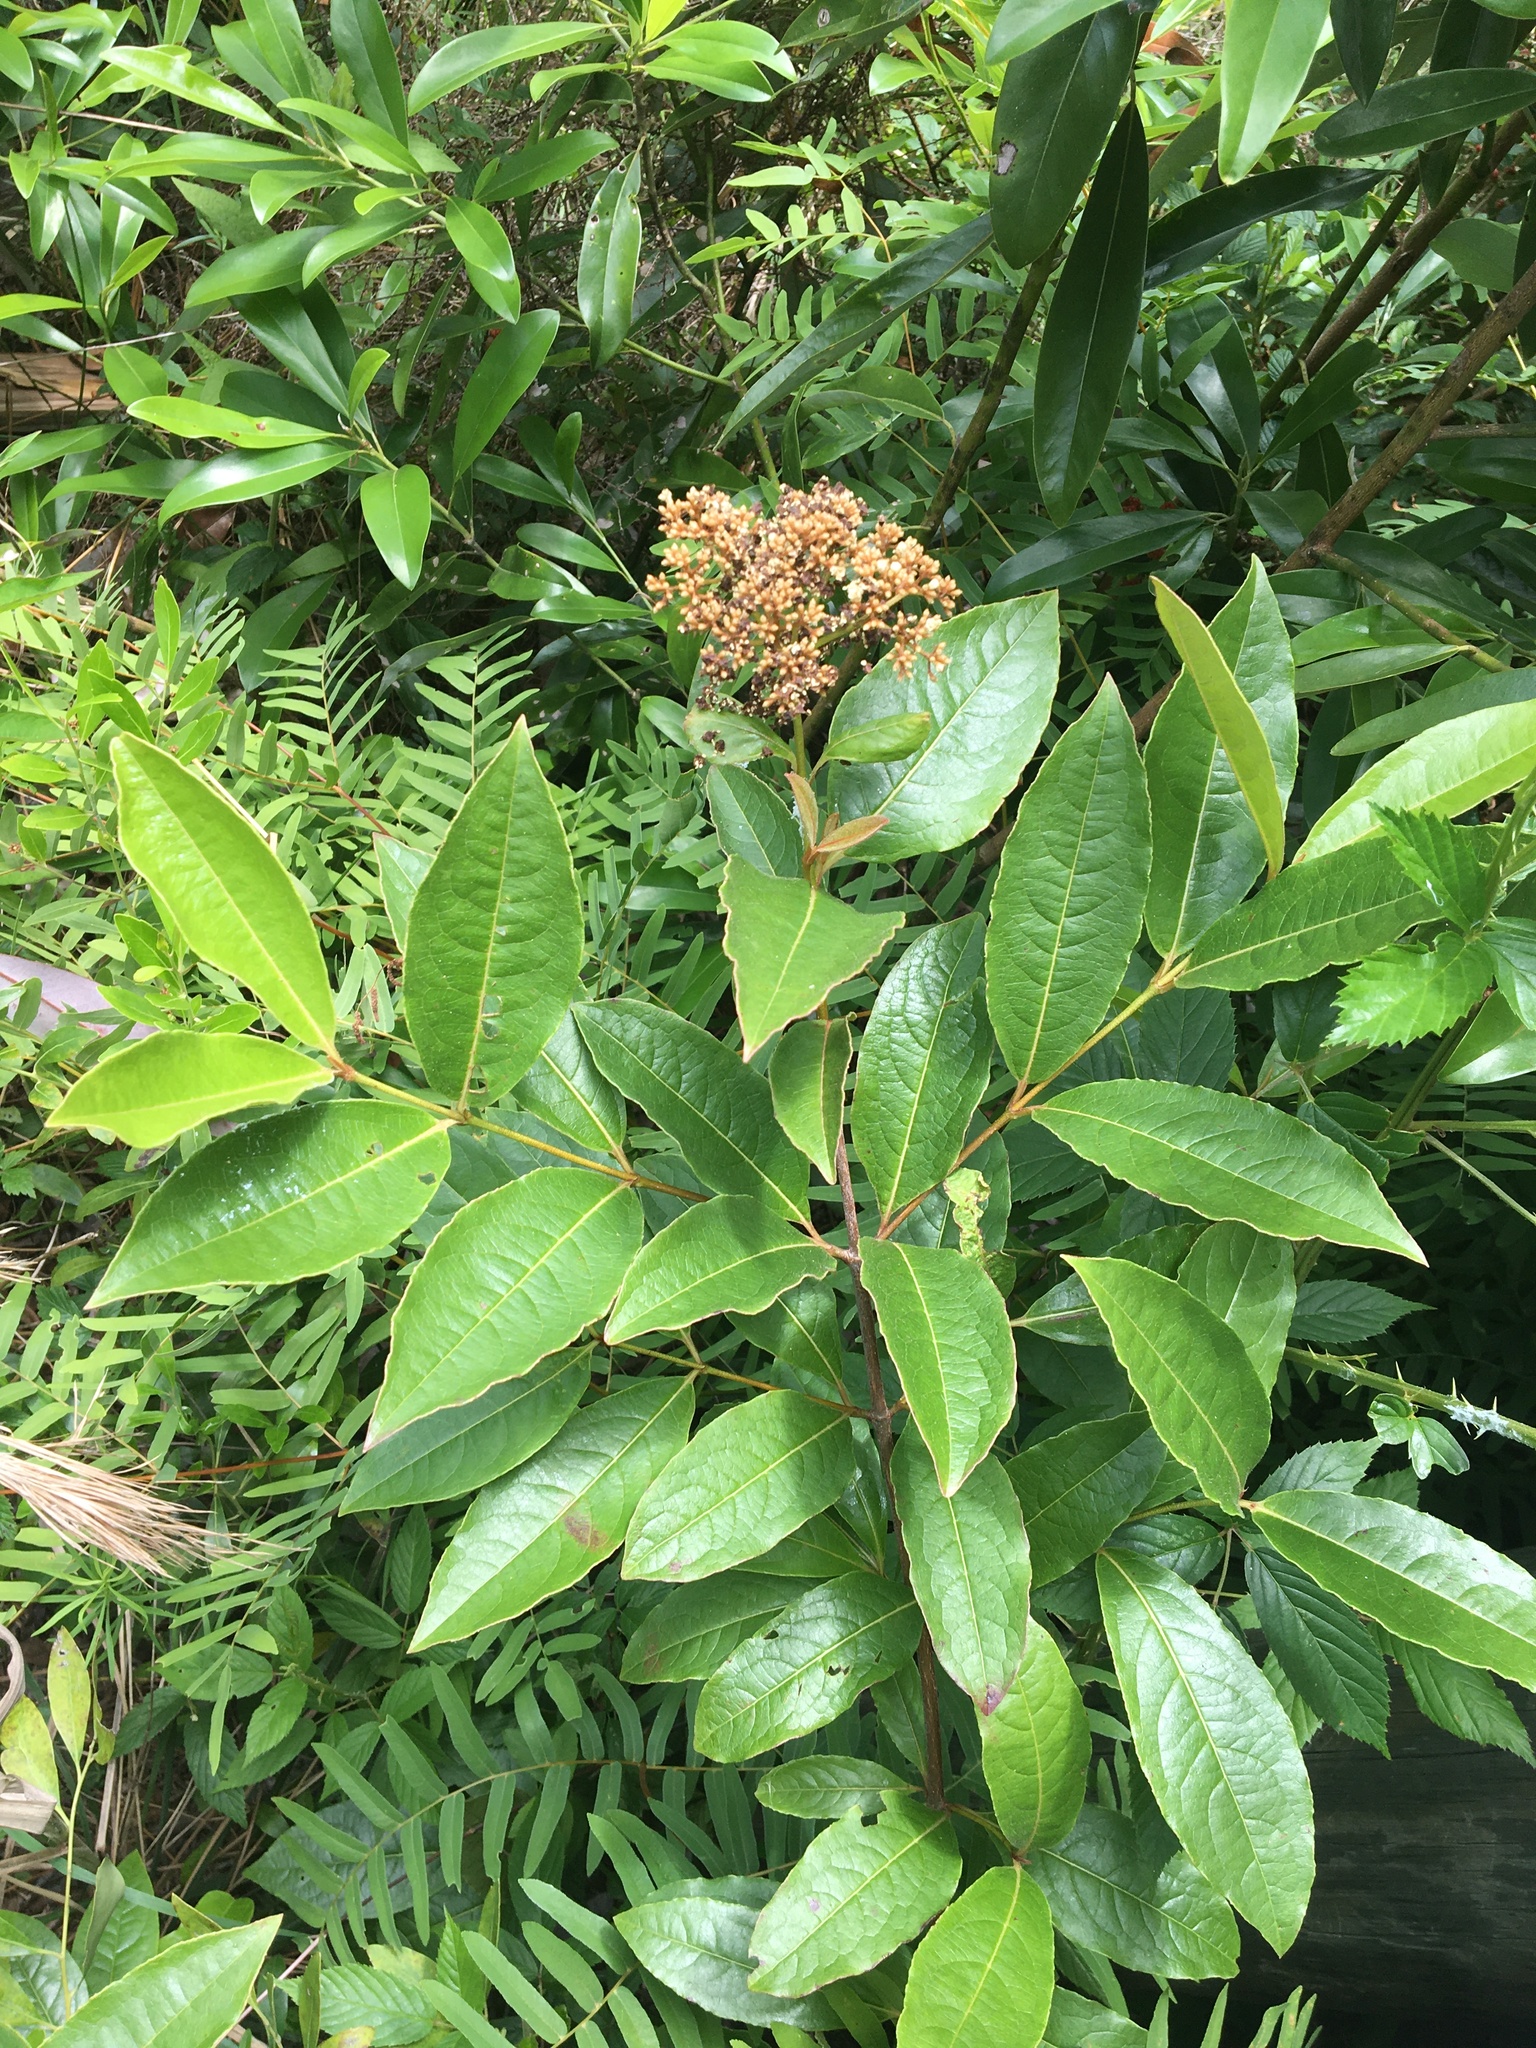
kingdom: Plantae
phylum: Tracheophyta
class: Magnoliopsida
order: Dipsacales
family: Viburnaceae
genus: Viburnum
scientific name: Viburnum nudum
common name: Possum haw
